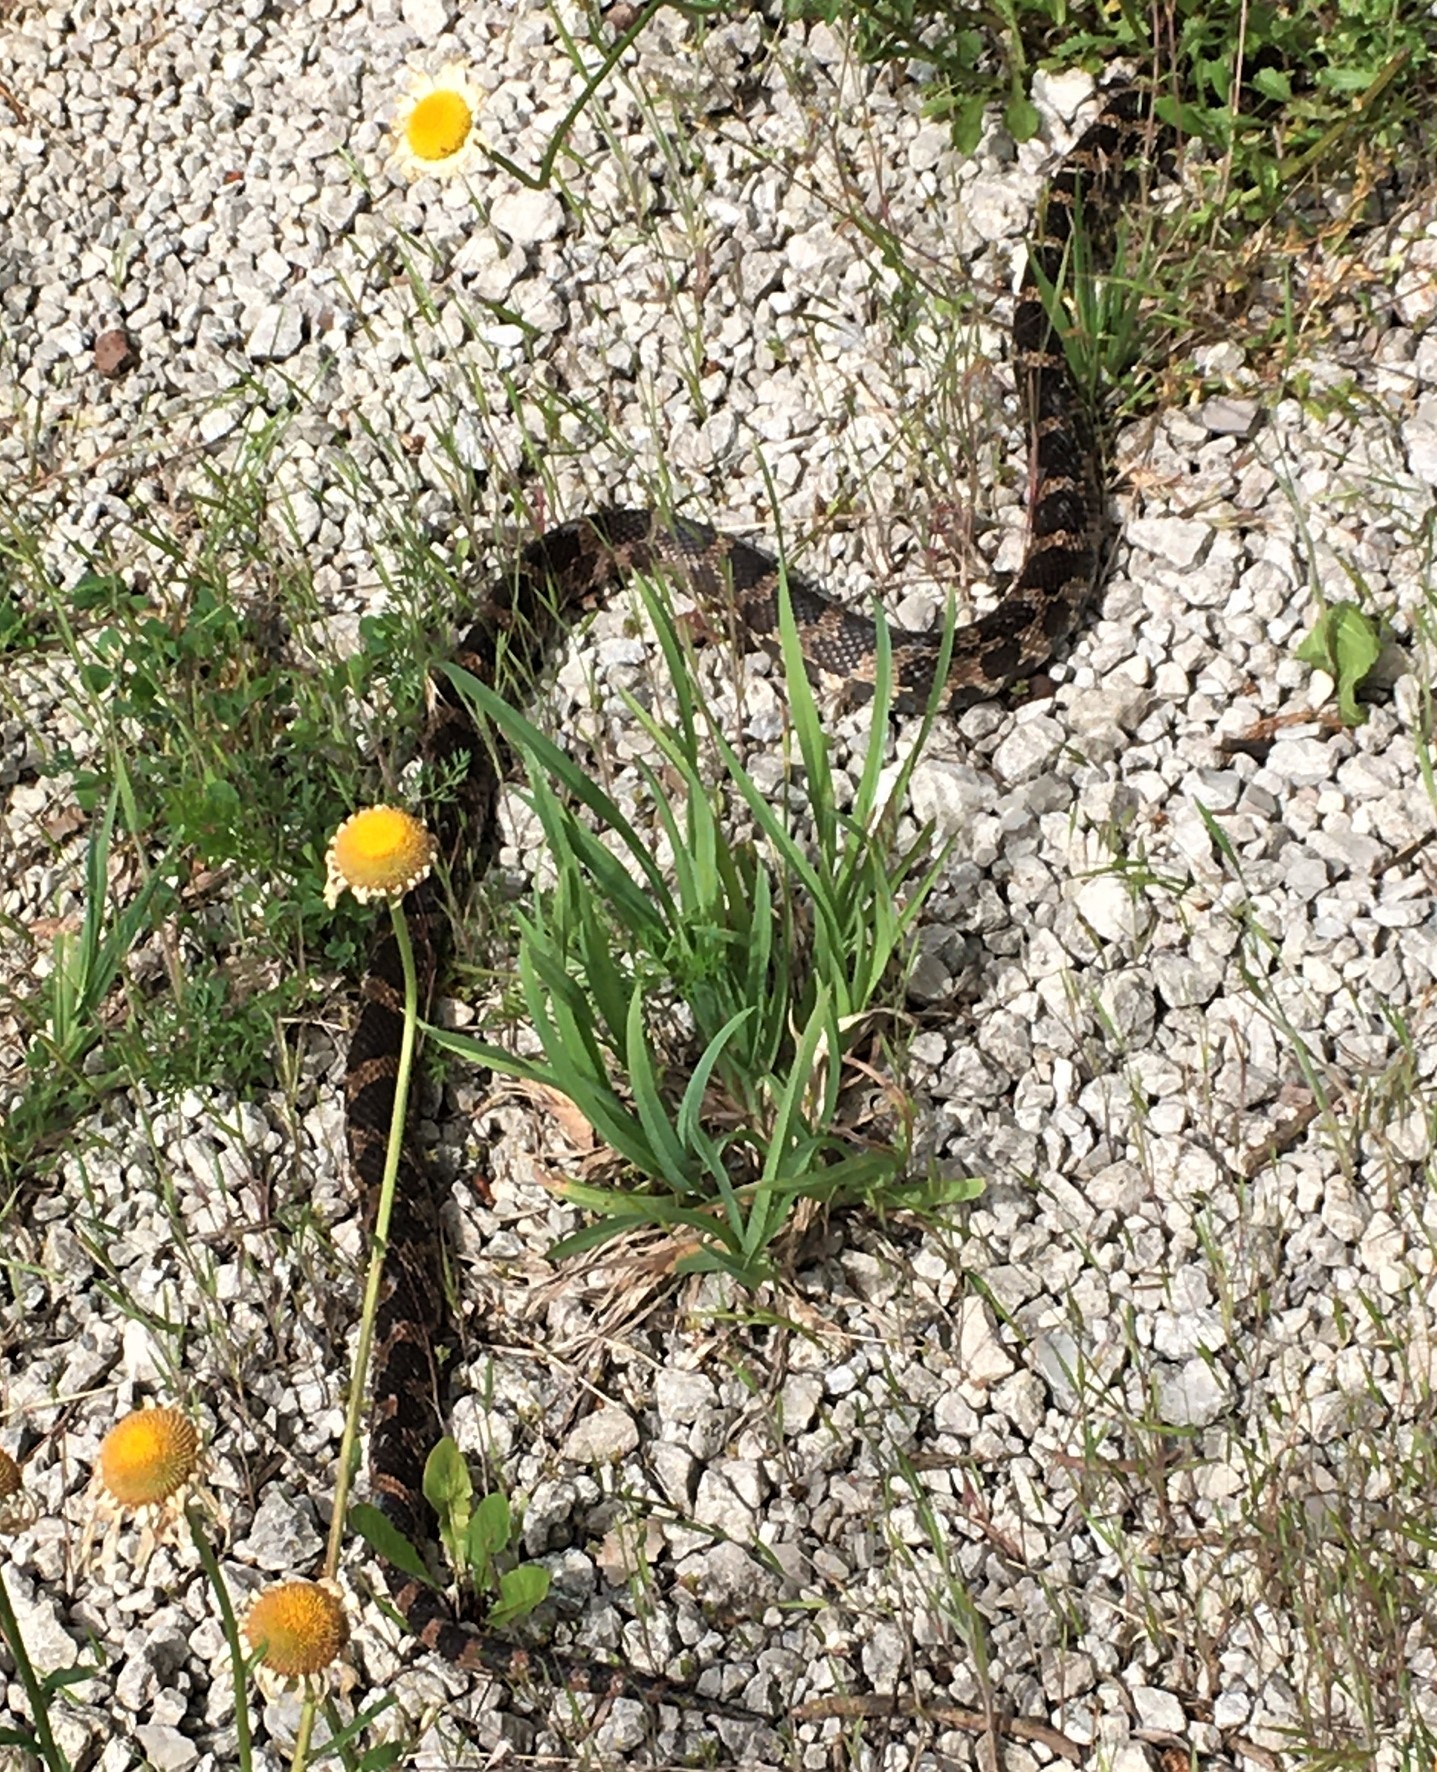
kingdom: Animalia
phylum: Chordata
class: Squamata
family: Colubridae
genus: Pantherophis
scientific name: Pantherophis vulpinus
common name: Eastern fox snake
